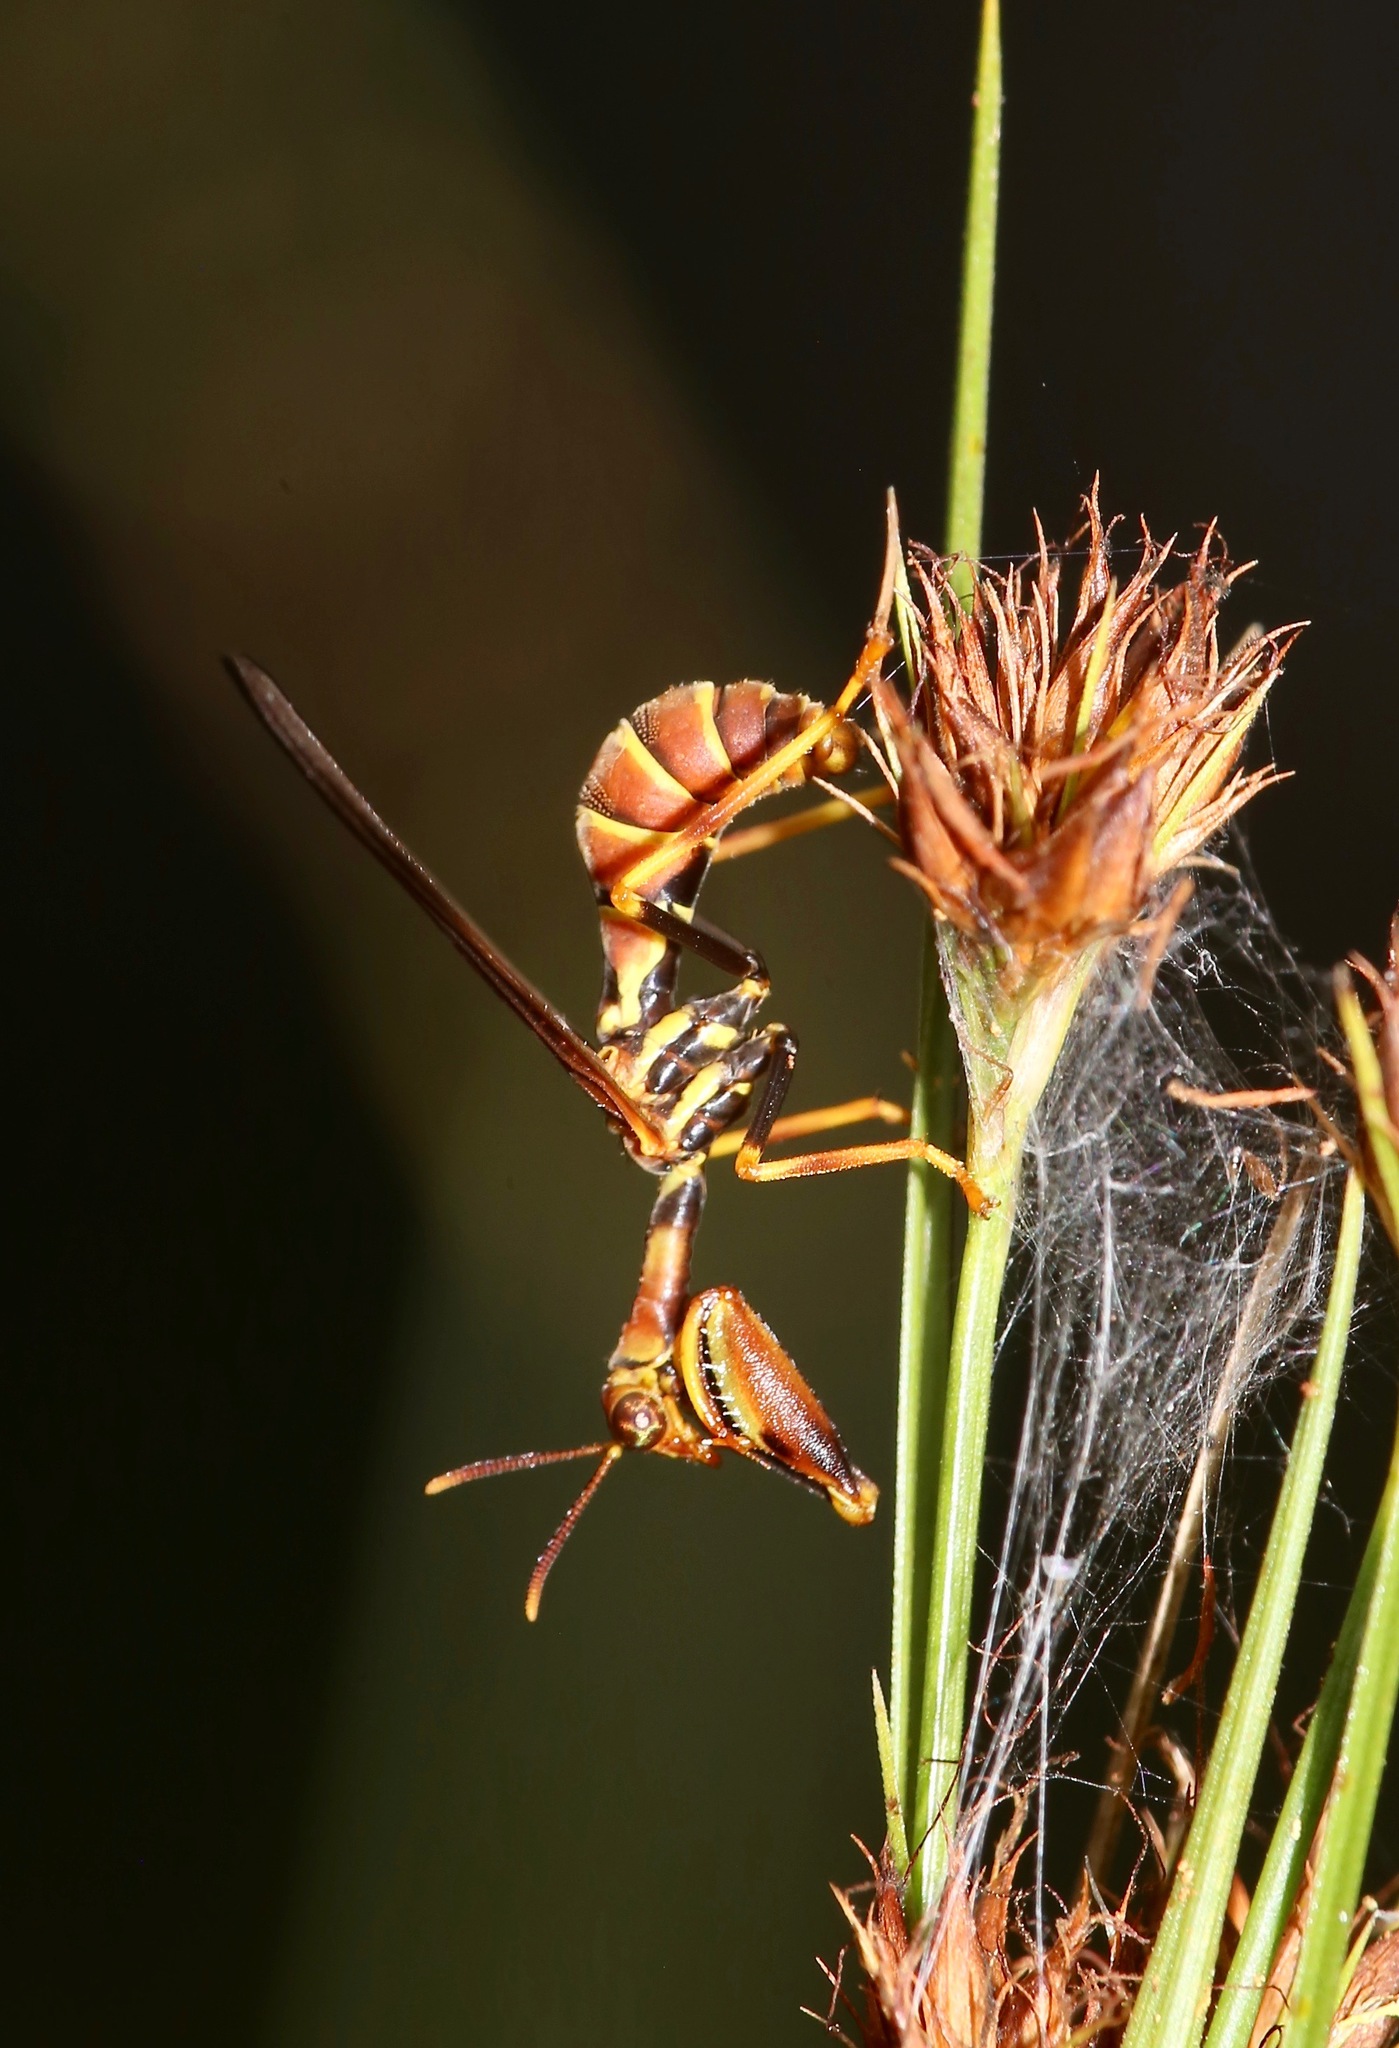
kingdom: Animalia
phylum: Arthropoda
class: Insecta
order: Neuroptera
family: Mantispidae
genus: Climaciella
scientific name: Climaciella brunnea
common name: Brown wasp mantidfly
